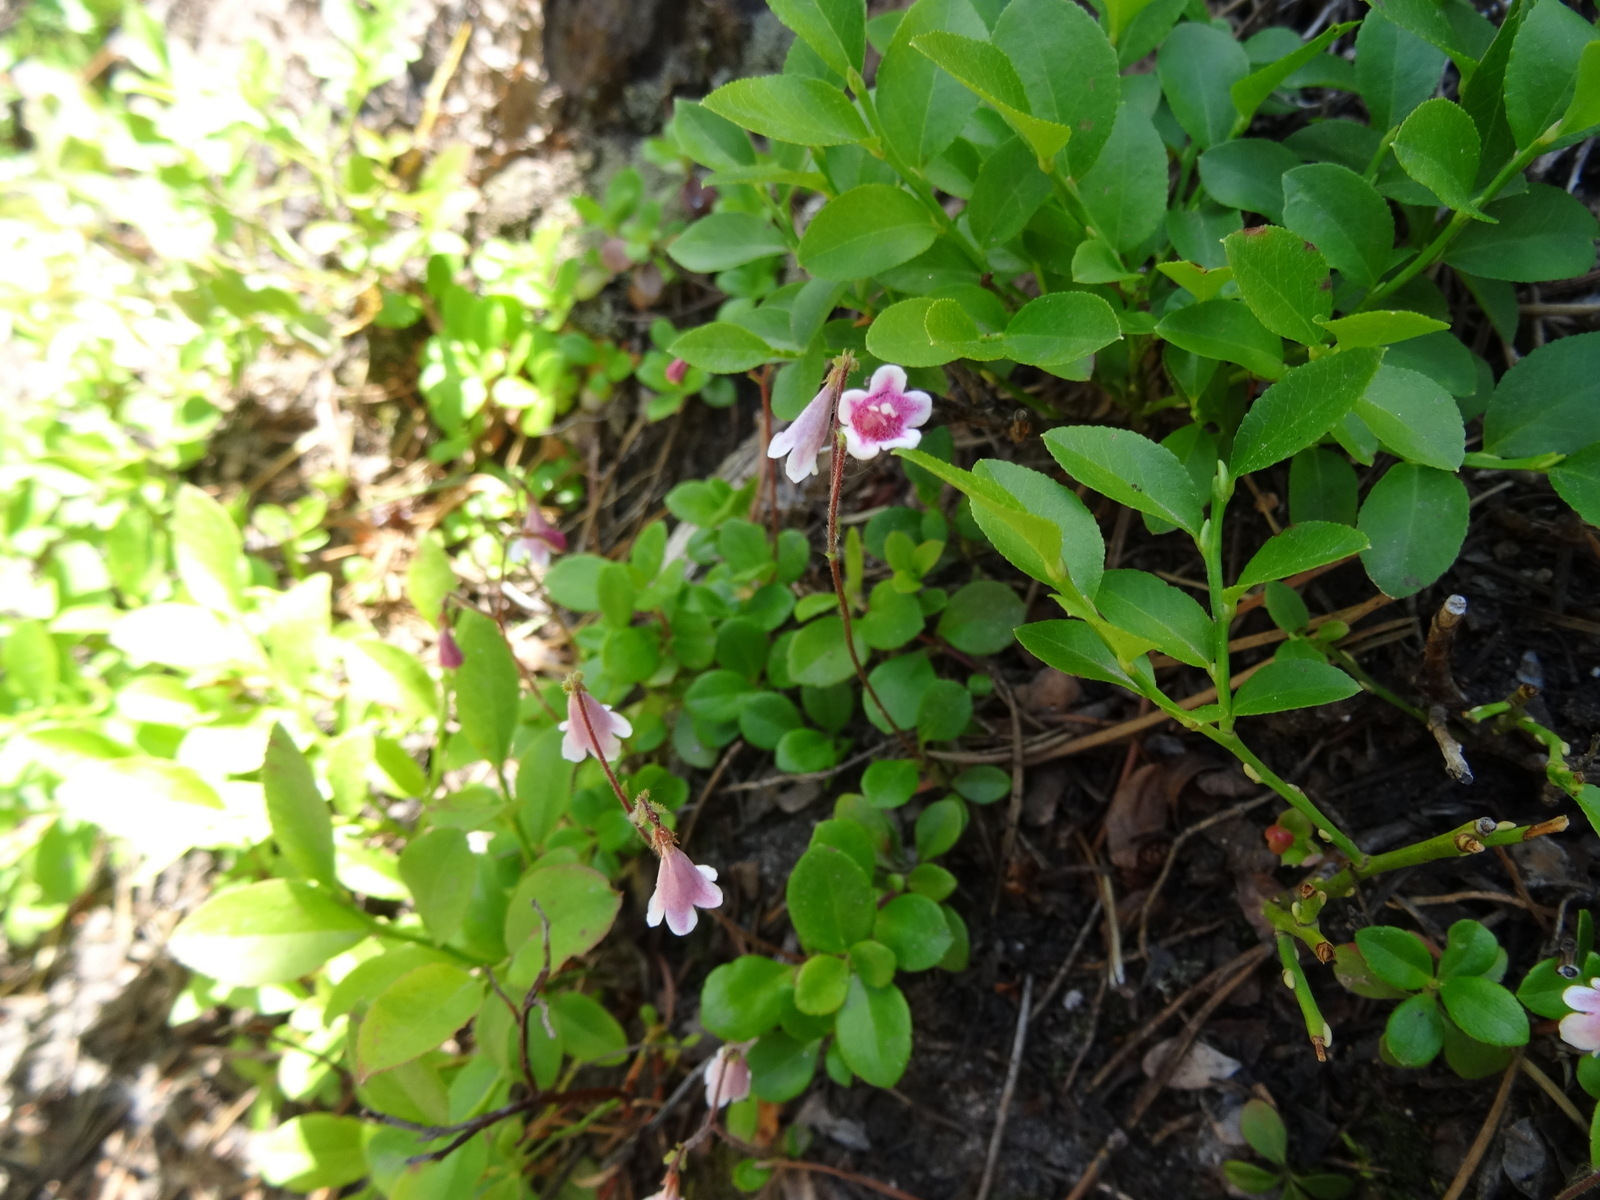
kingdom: Plantae
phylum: Tracheophyta
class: Magnoliopsida
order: Dipsacales
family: Caprifoliaceae
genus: Linnaea
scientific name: Linnaea borealis
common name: Twinflower
